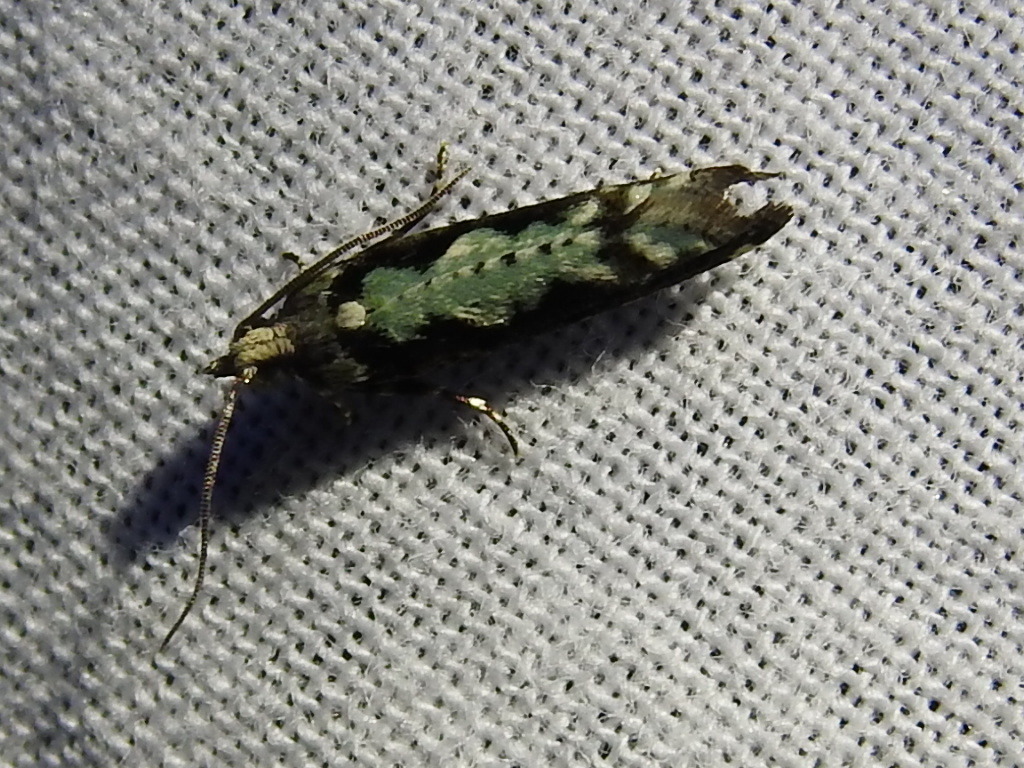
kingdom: Animalia
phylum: Arthropoda
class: Insecta
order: Lepidoptera
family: Tortricidae
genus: Chimoptesis
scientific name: Chimoptesis pennsylvaniana
